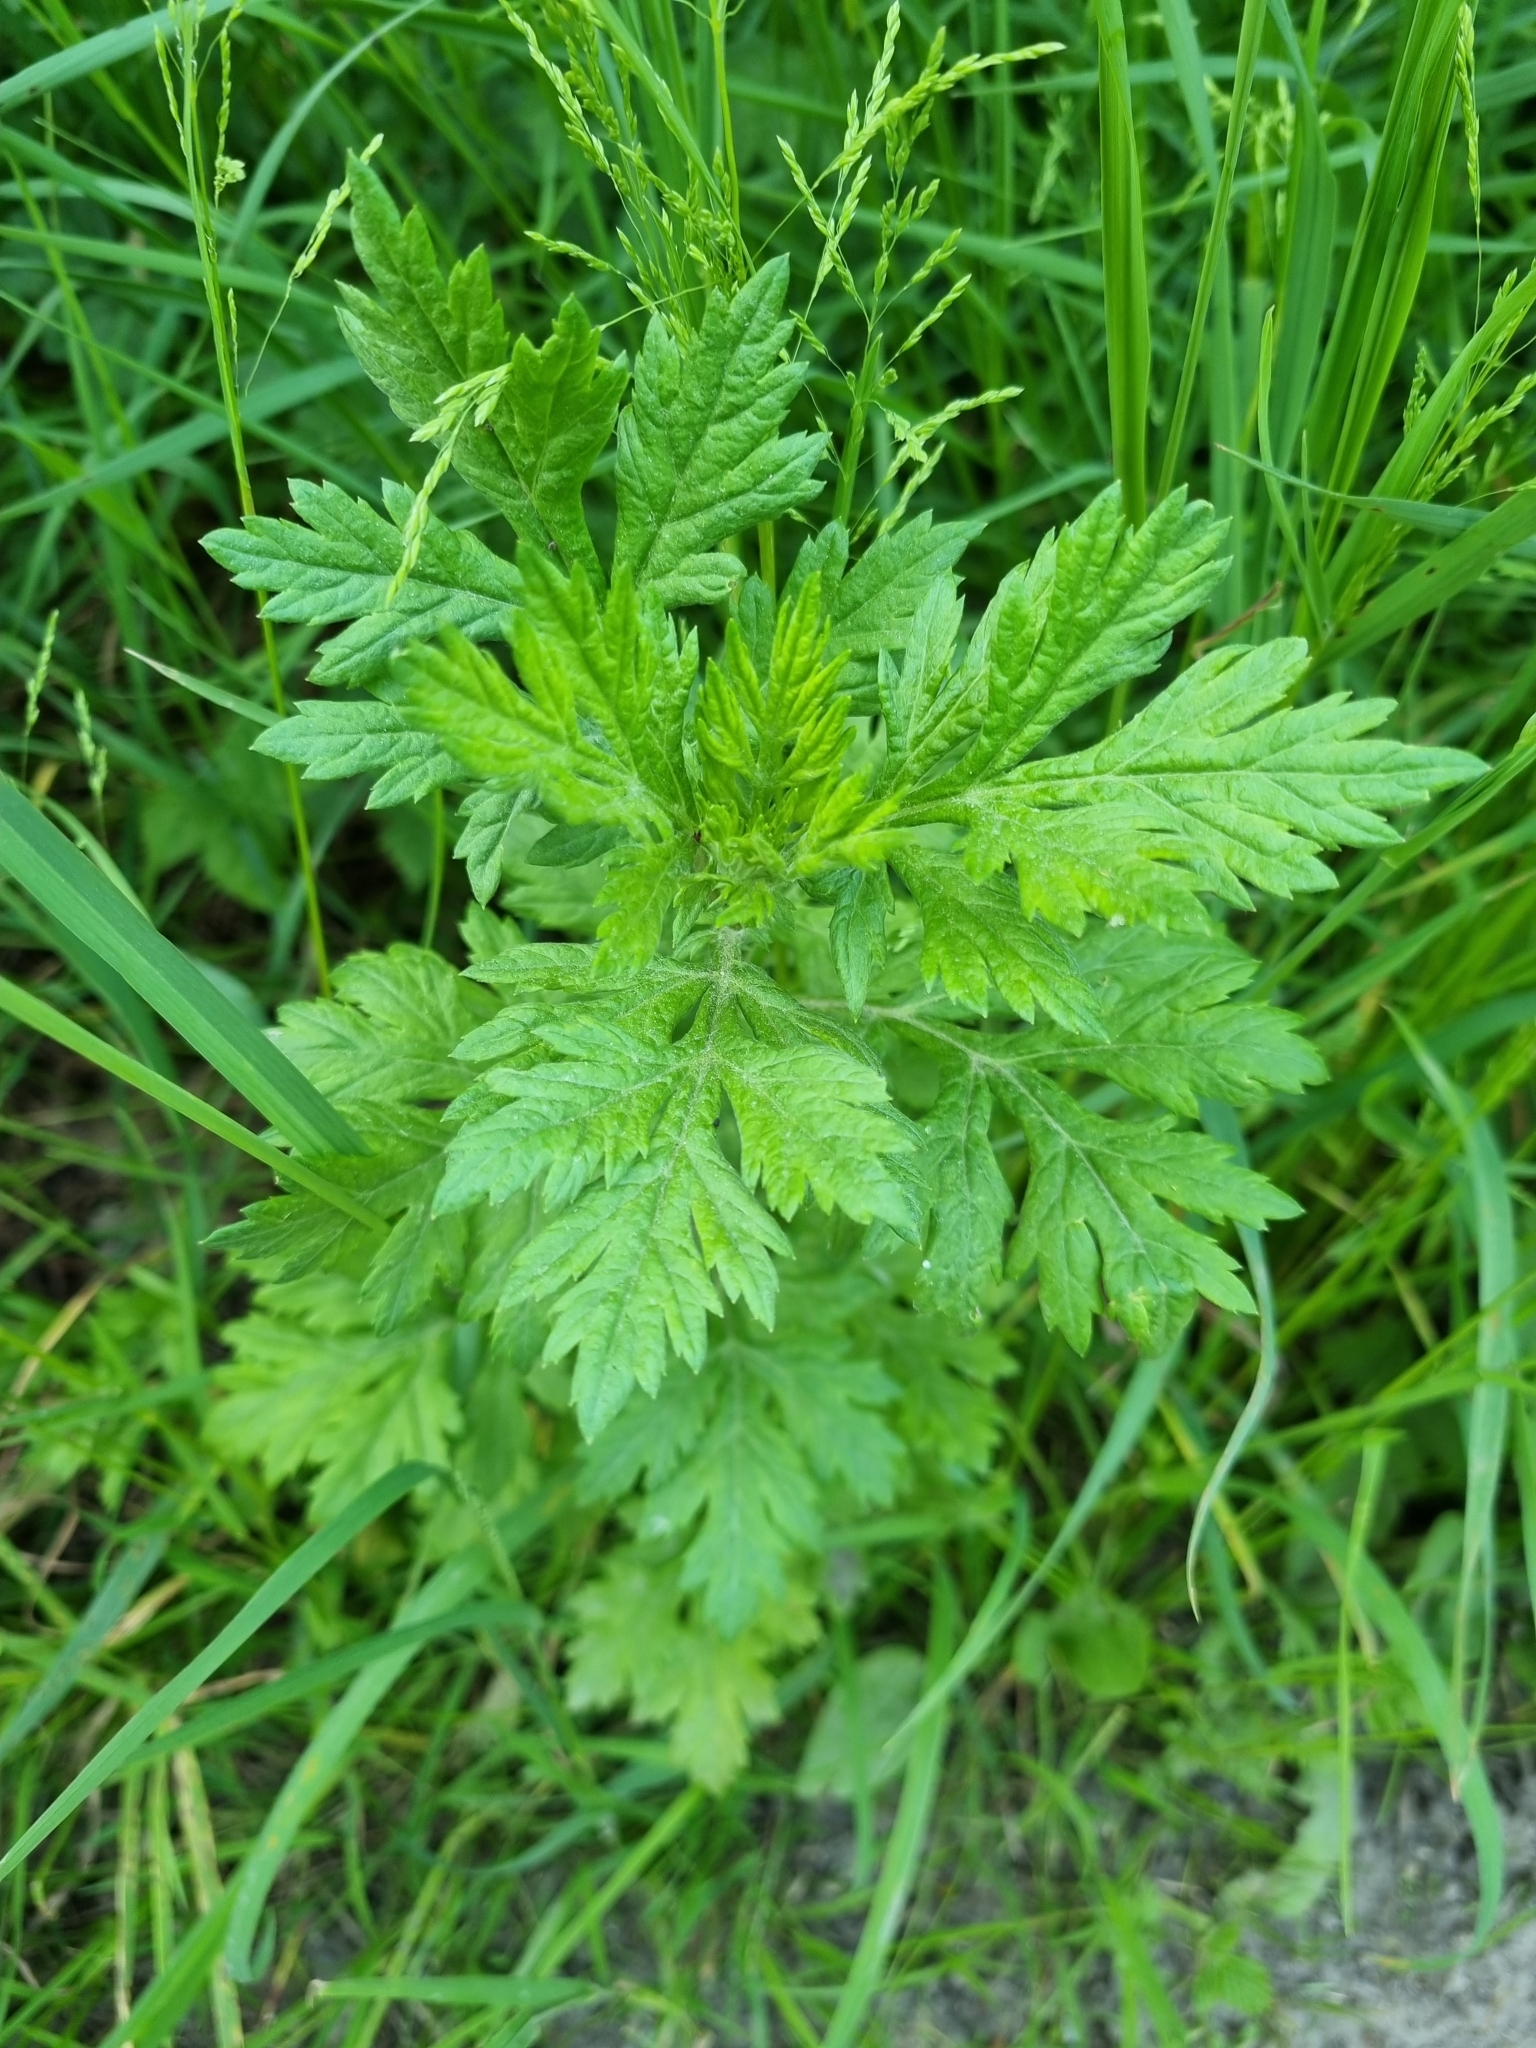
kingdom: Plantae
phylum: Tracheophyta
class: Magnoliopsida
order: Asterales
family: Asteraceae
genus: Artemisia
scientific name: Artemisia vulgaris
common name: Mugwort
